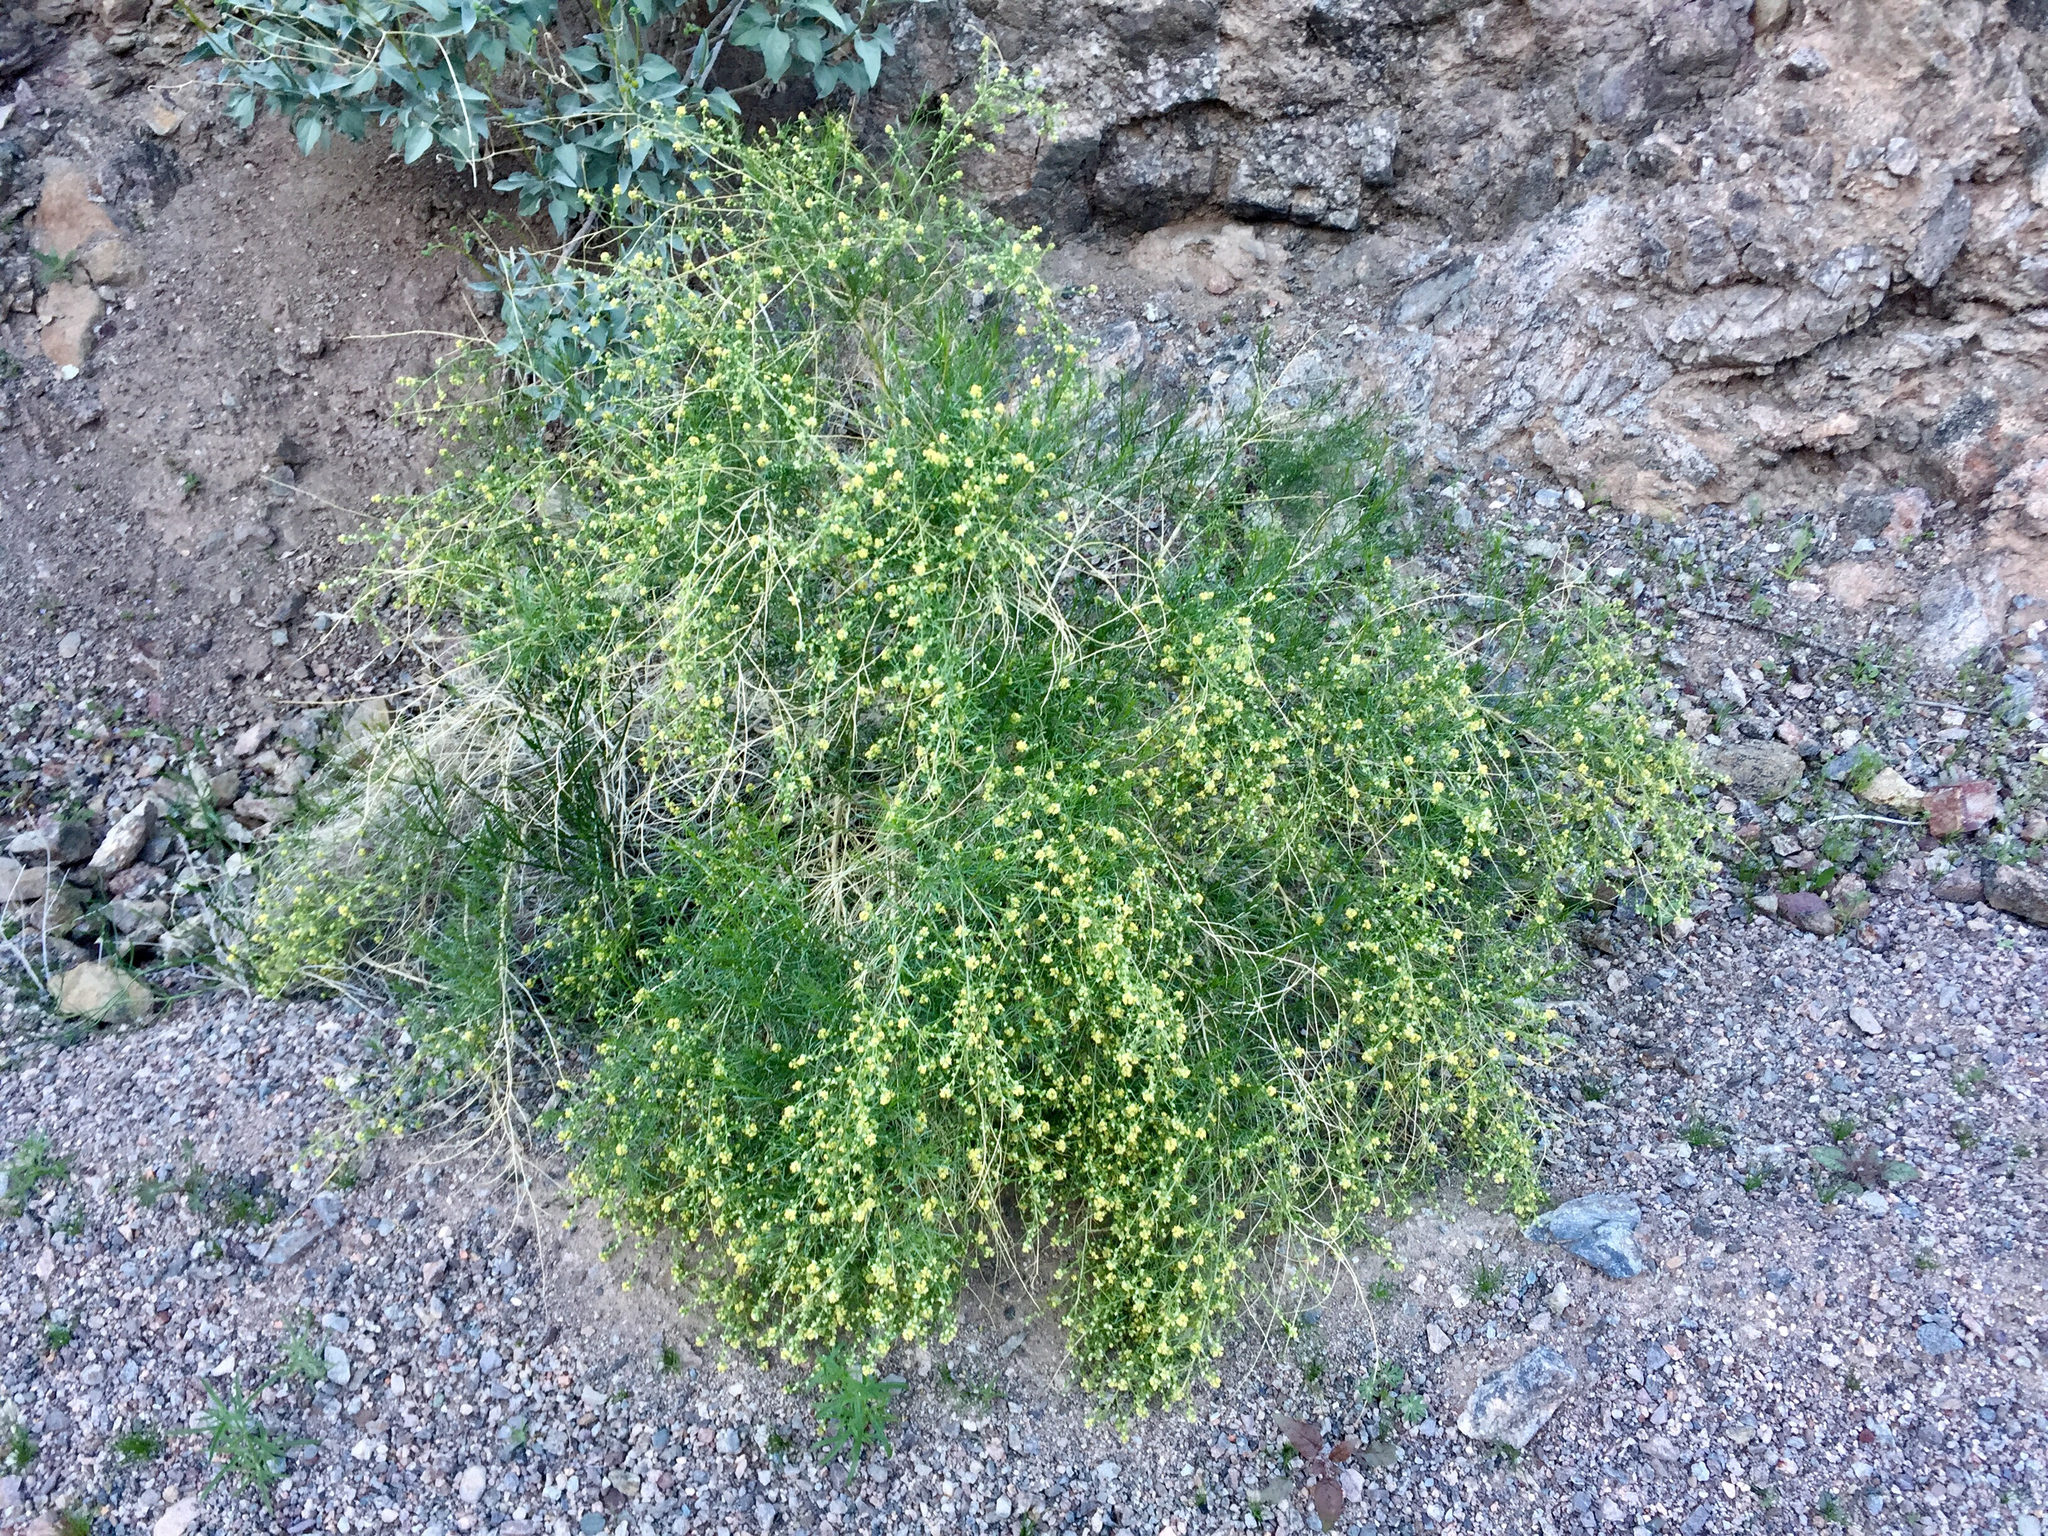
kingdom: Plantae
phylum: Tracheophyta
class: Magnoliopsida
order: Asterales
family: Asteraceae
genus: Ambrosia
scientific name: Ambrosia salsola
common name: Burrobrush
